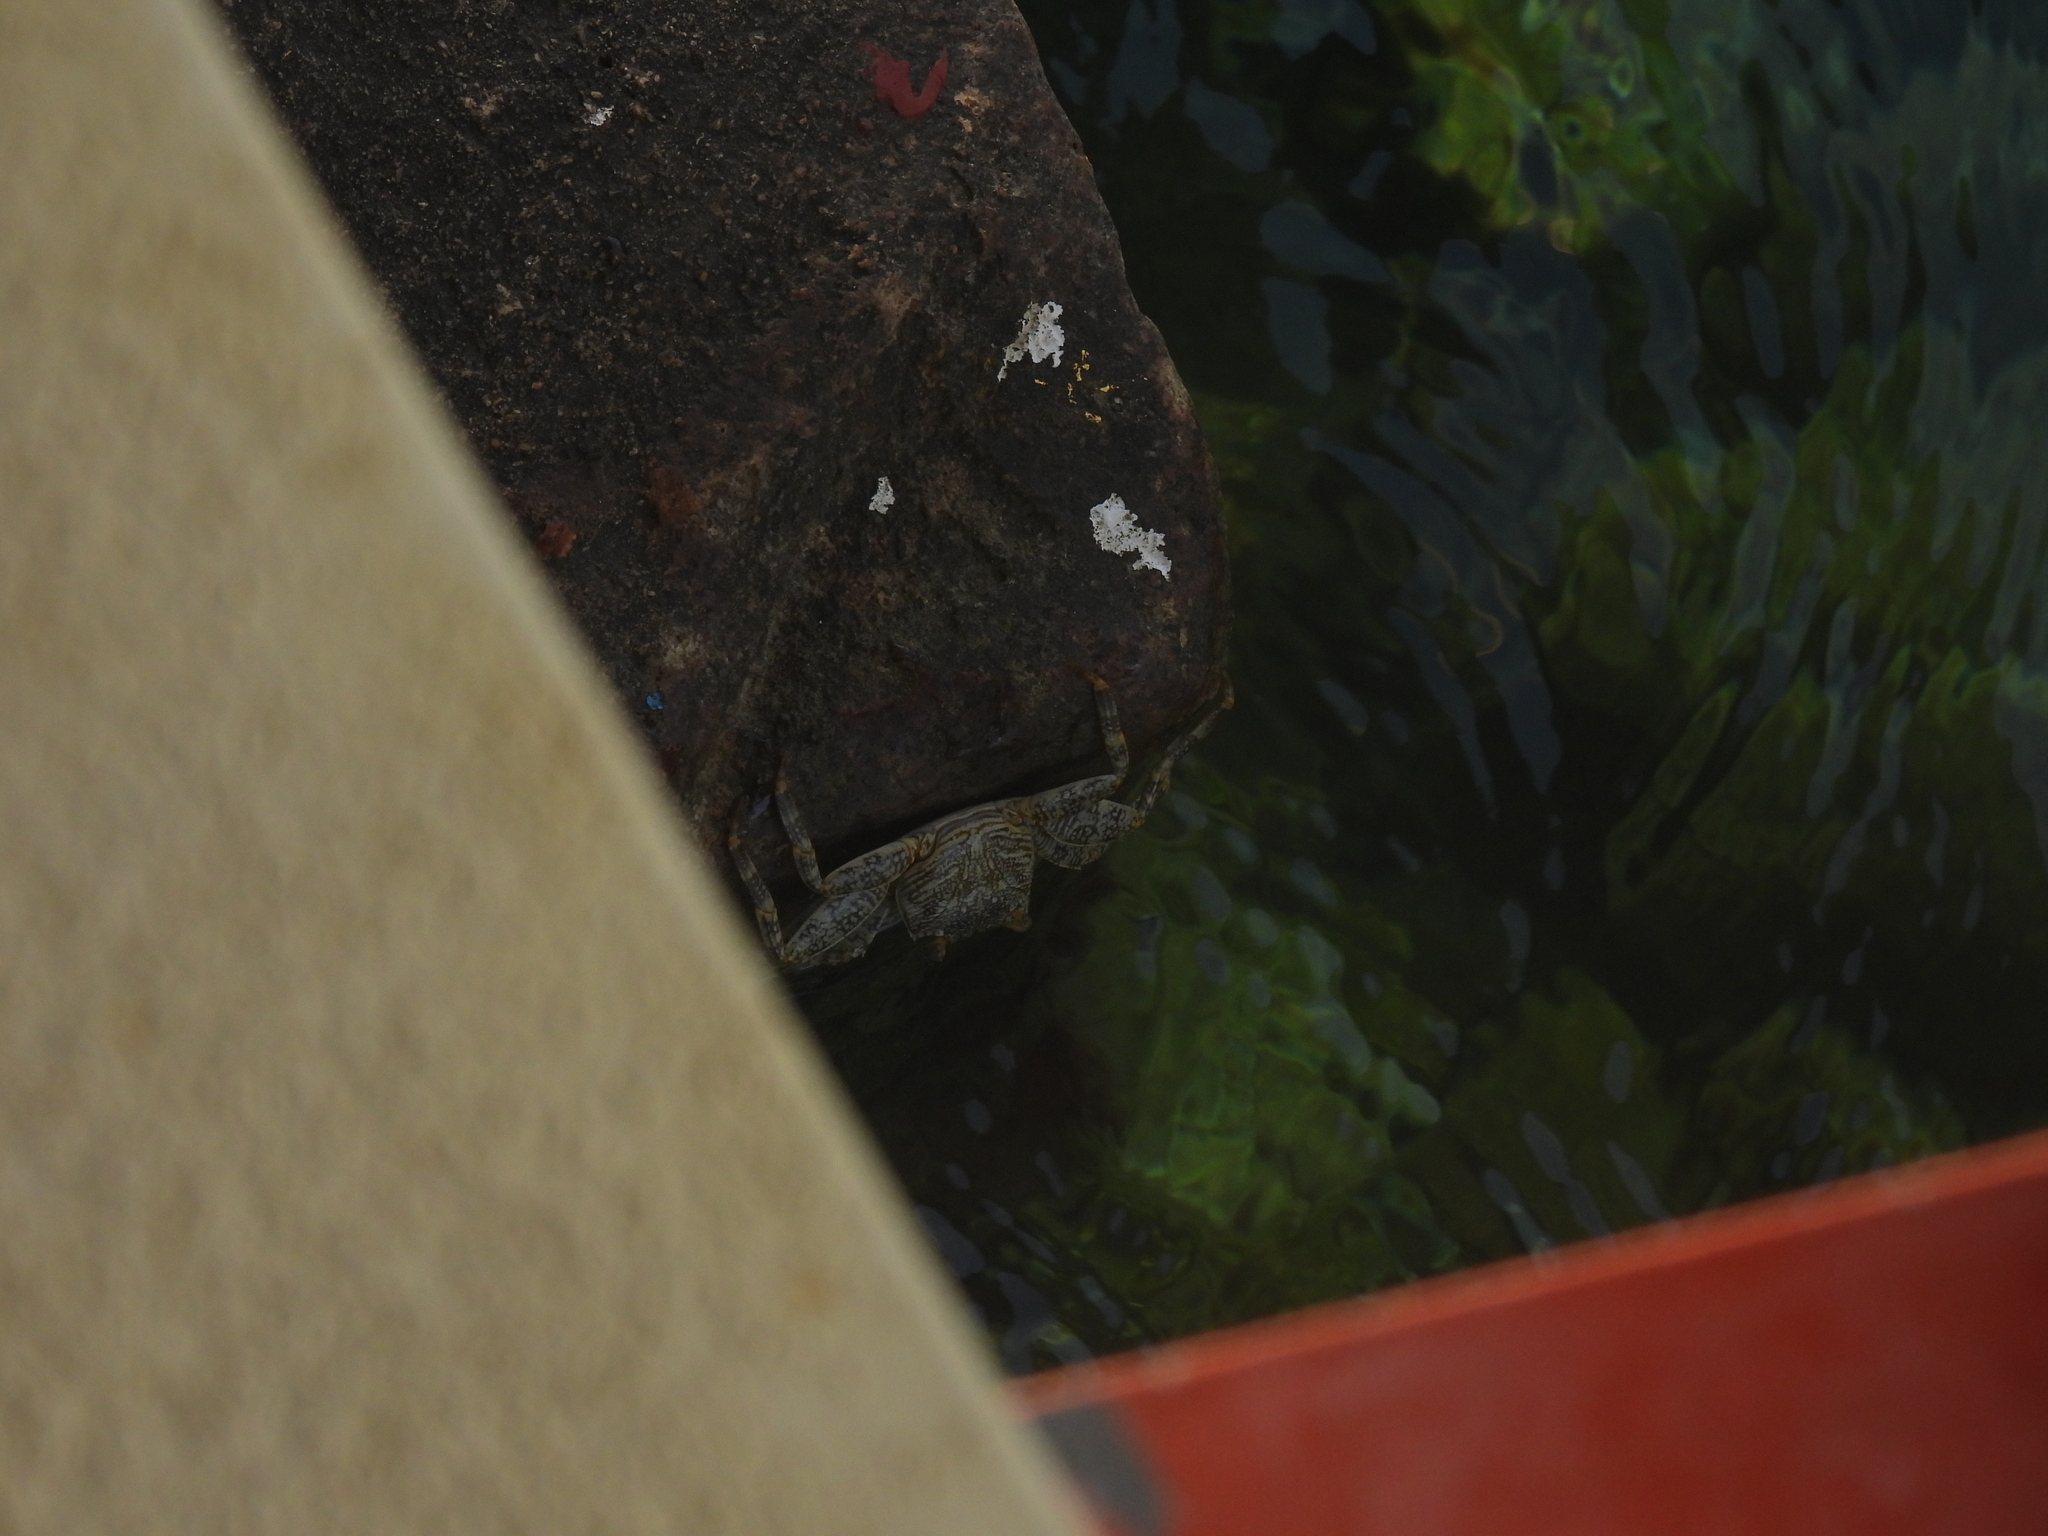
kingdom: Animalia
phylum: Arthropoda
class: Malacostraca
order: Decapoda
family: Grapsidae
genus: Grapsus
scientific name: Grapsus grapsus
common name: Sally lightfoot
